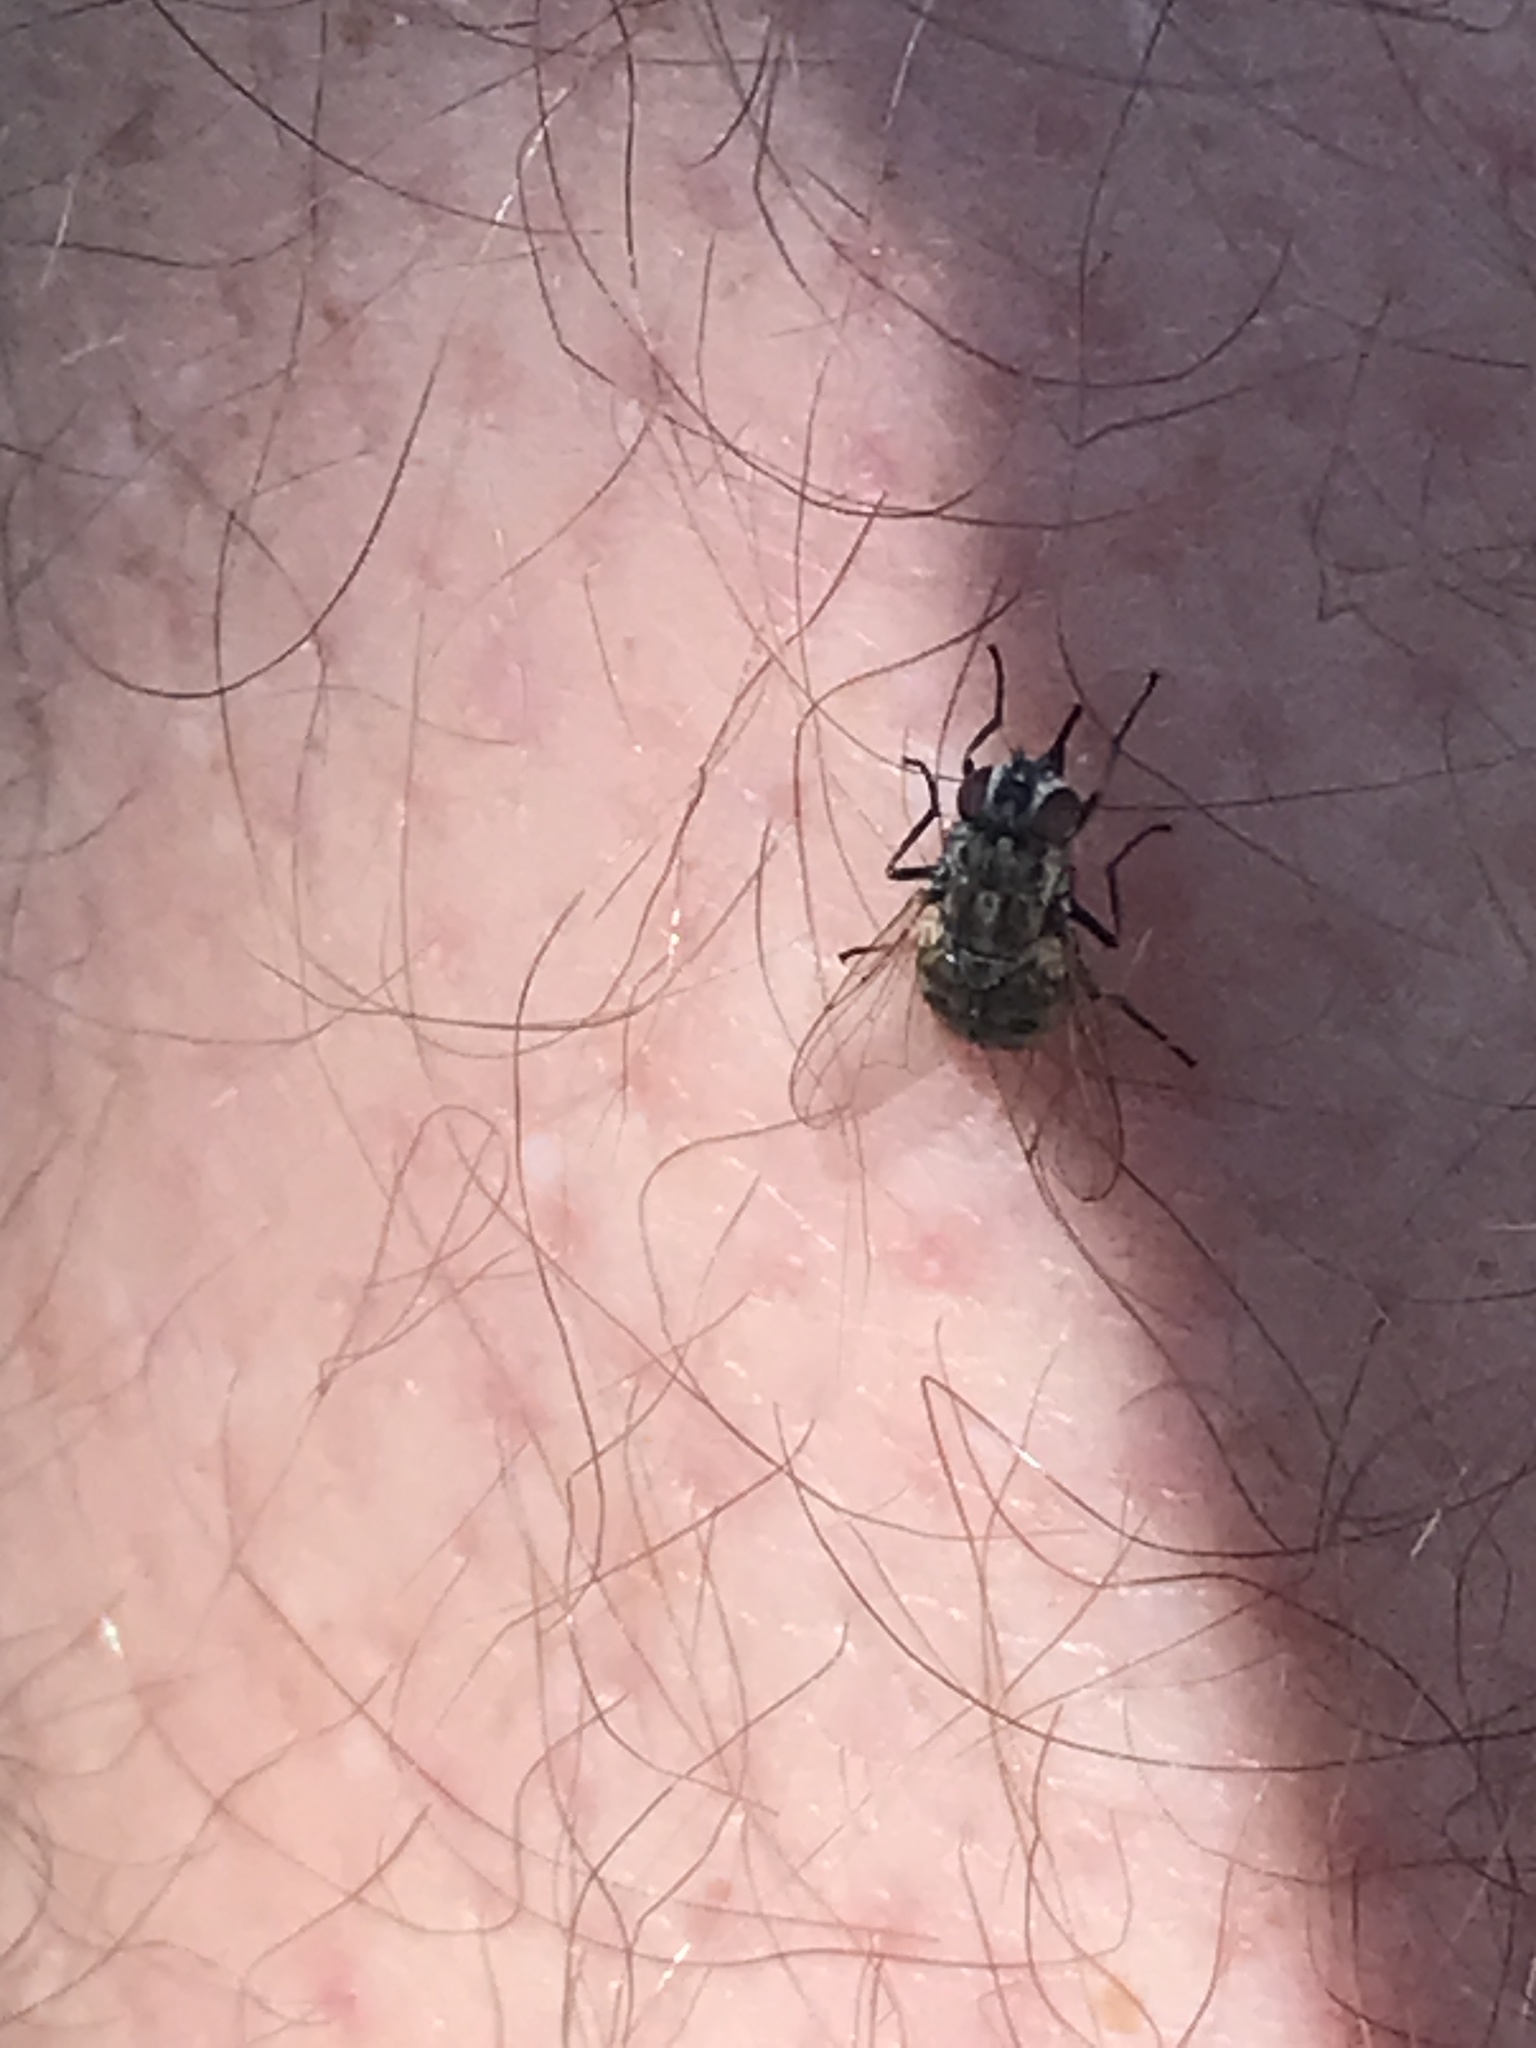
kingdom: Animalia
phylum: Arthropoda
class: Insecta
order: Diptera
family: Muscidae
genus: Stomoxys
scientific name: Stomoxys calcitrans
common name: Stable fly
